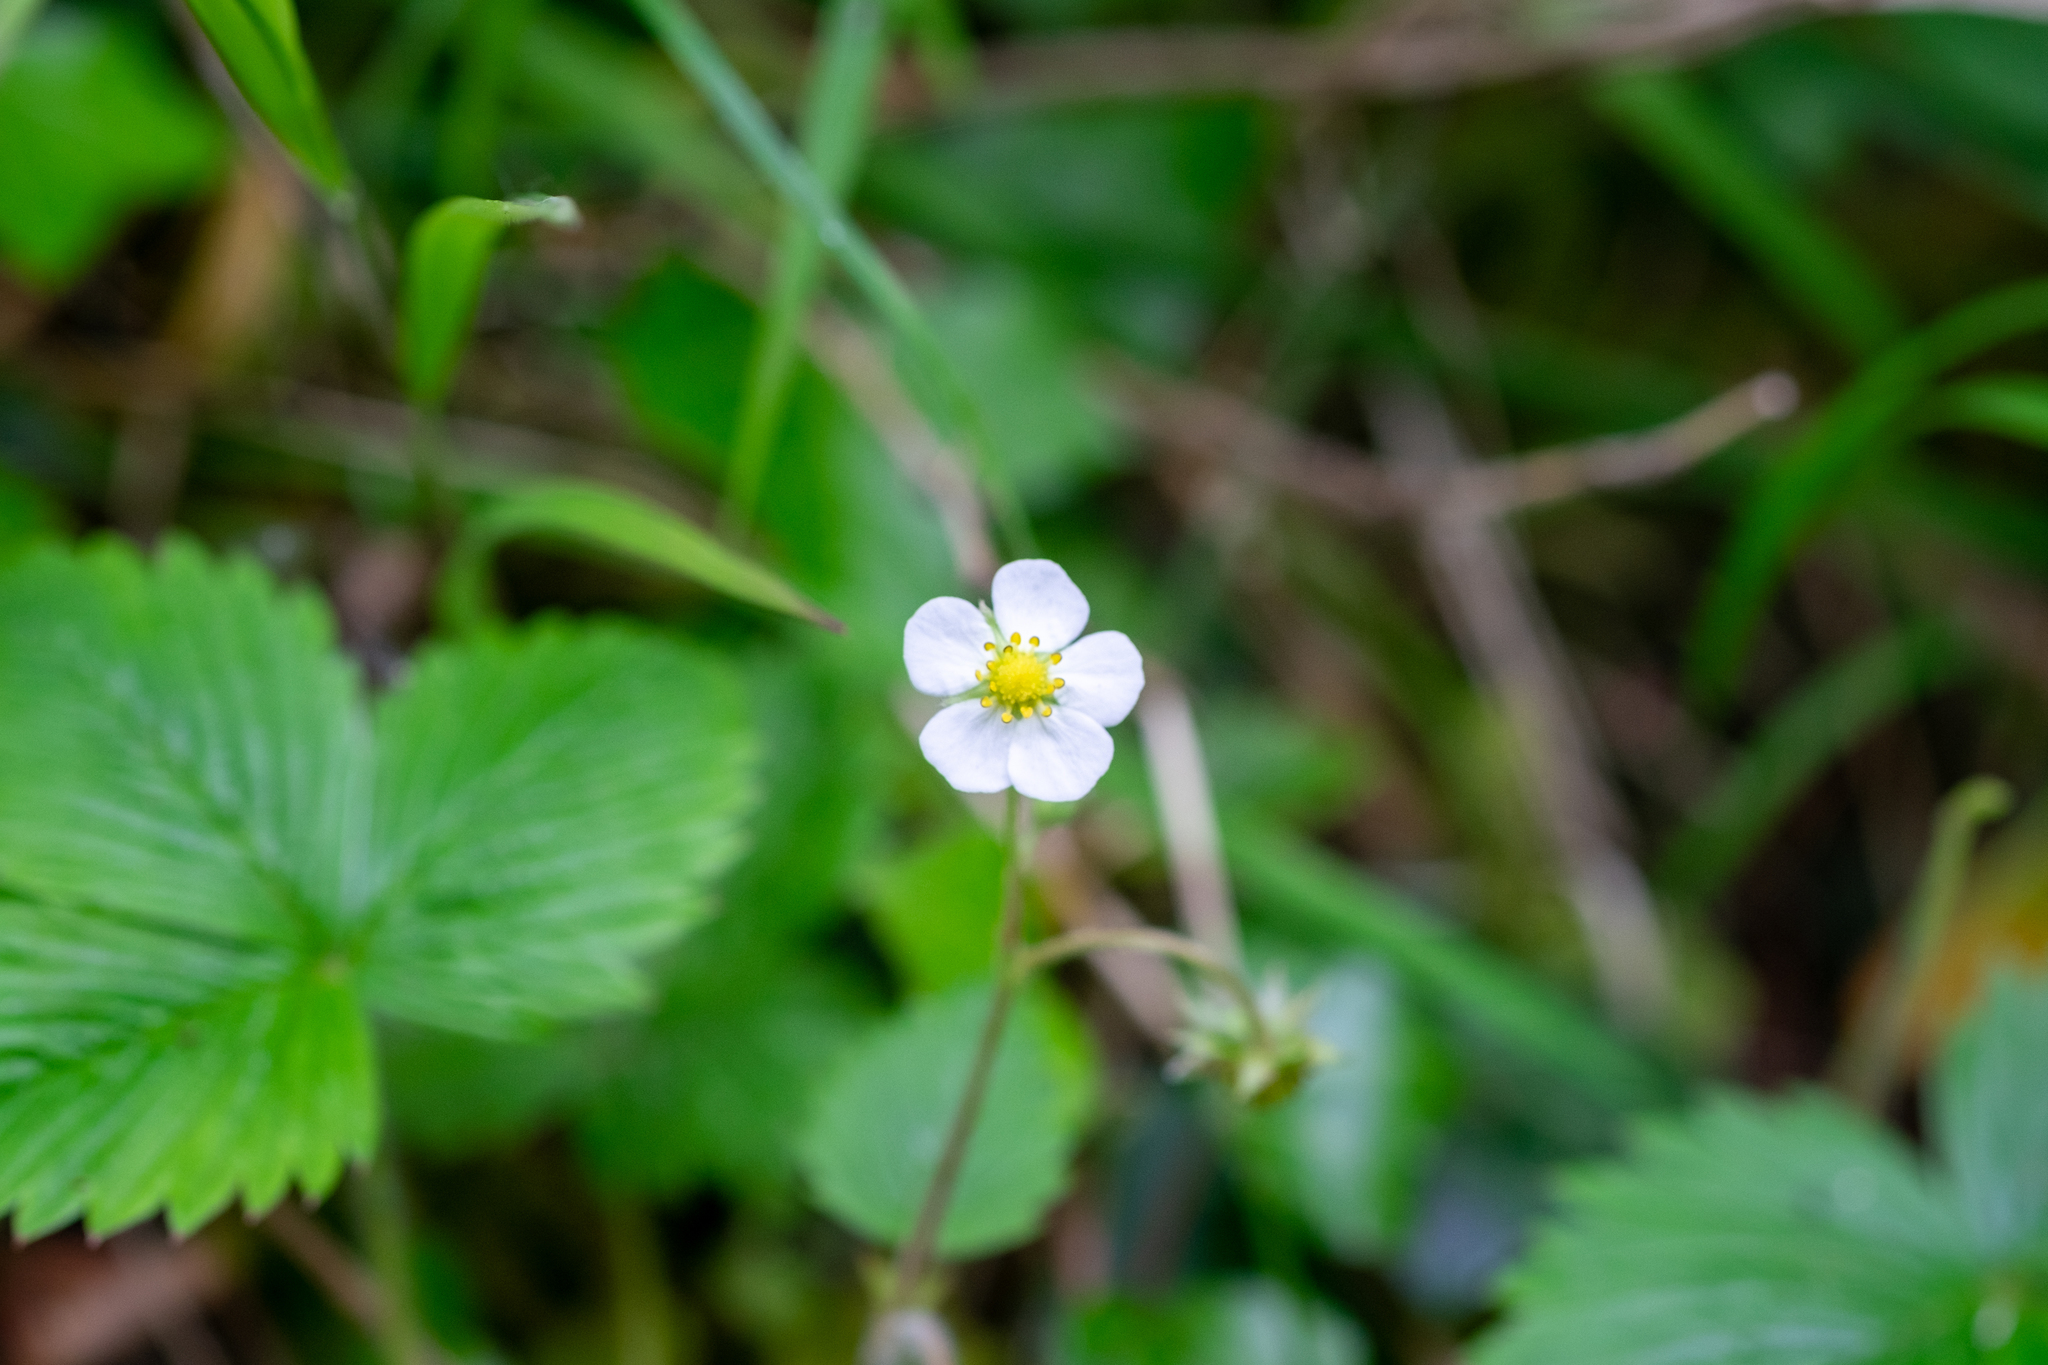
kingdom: Plantae
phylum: Tracheophyta
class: Magnoliopsida
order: Rosales
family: Rosaceae
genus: Fragaria
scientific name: Fragaria vesca
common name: Wild strawberry
